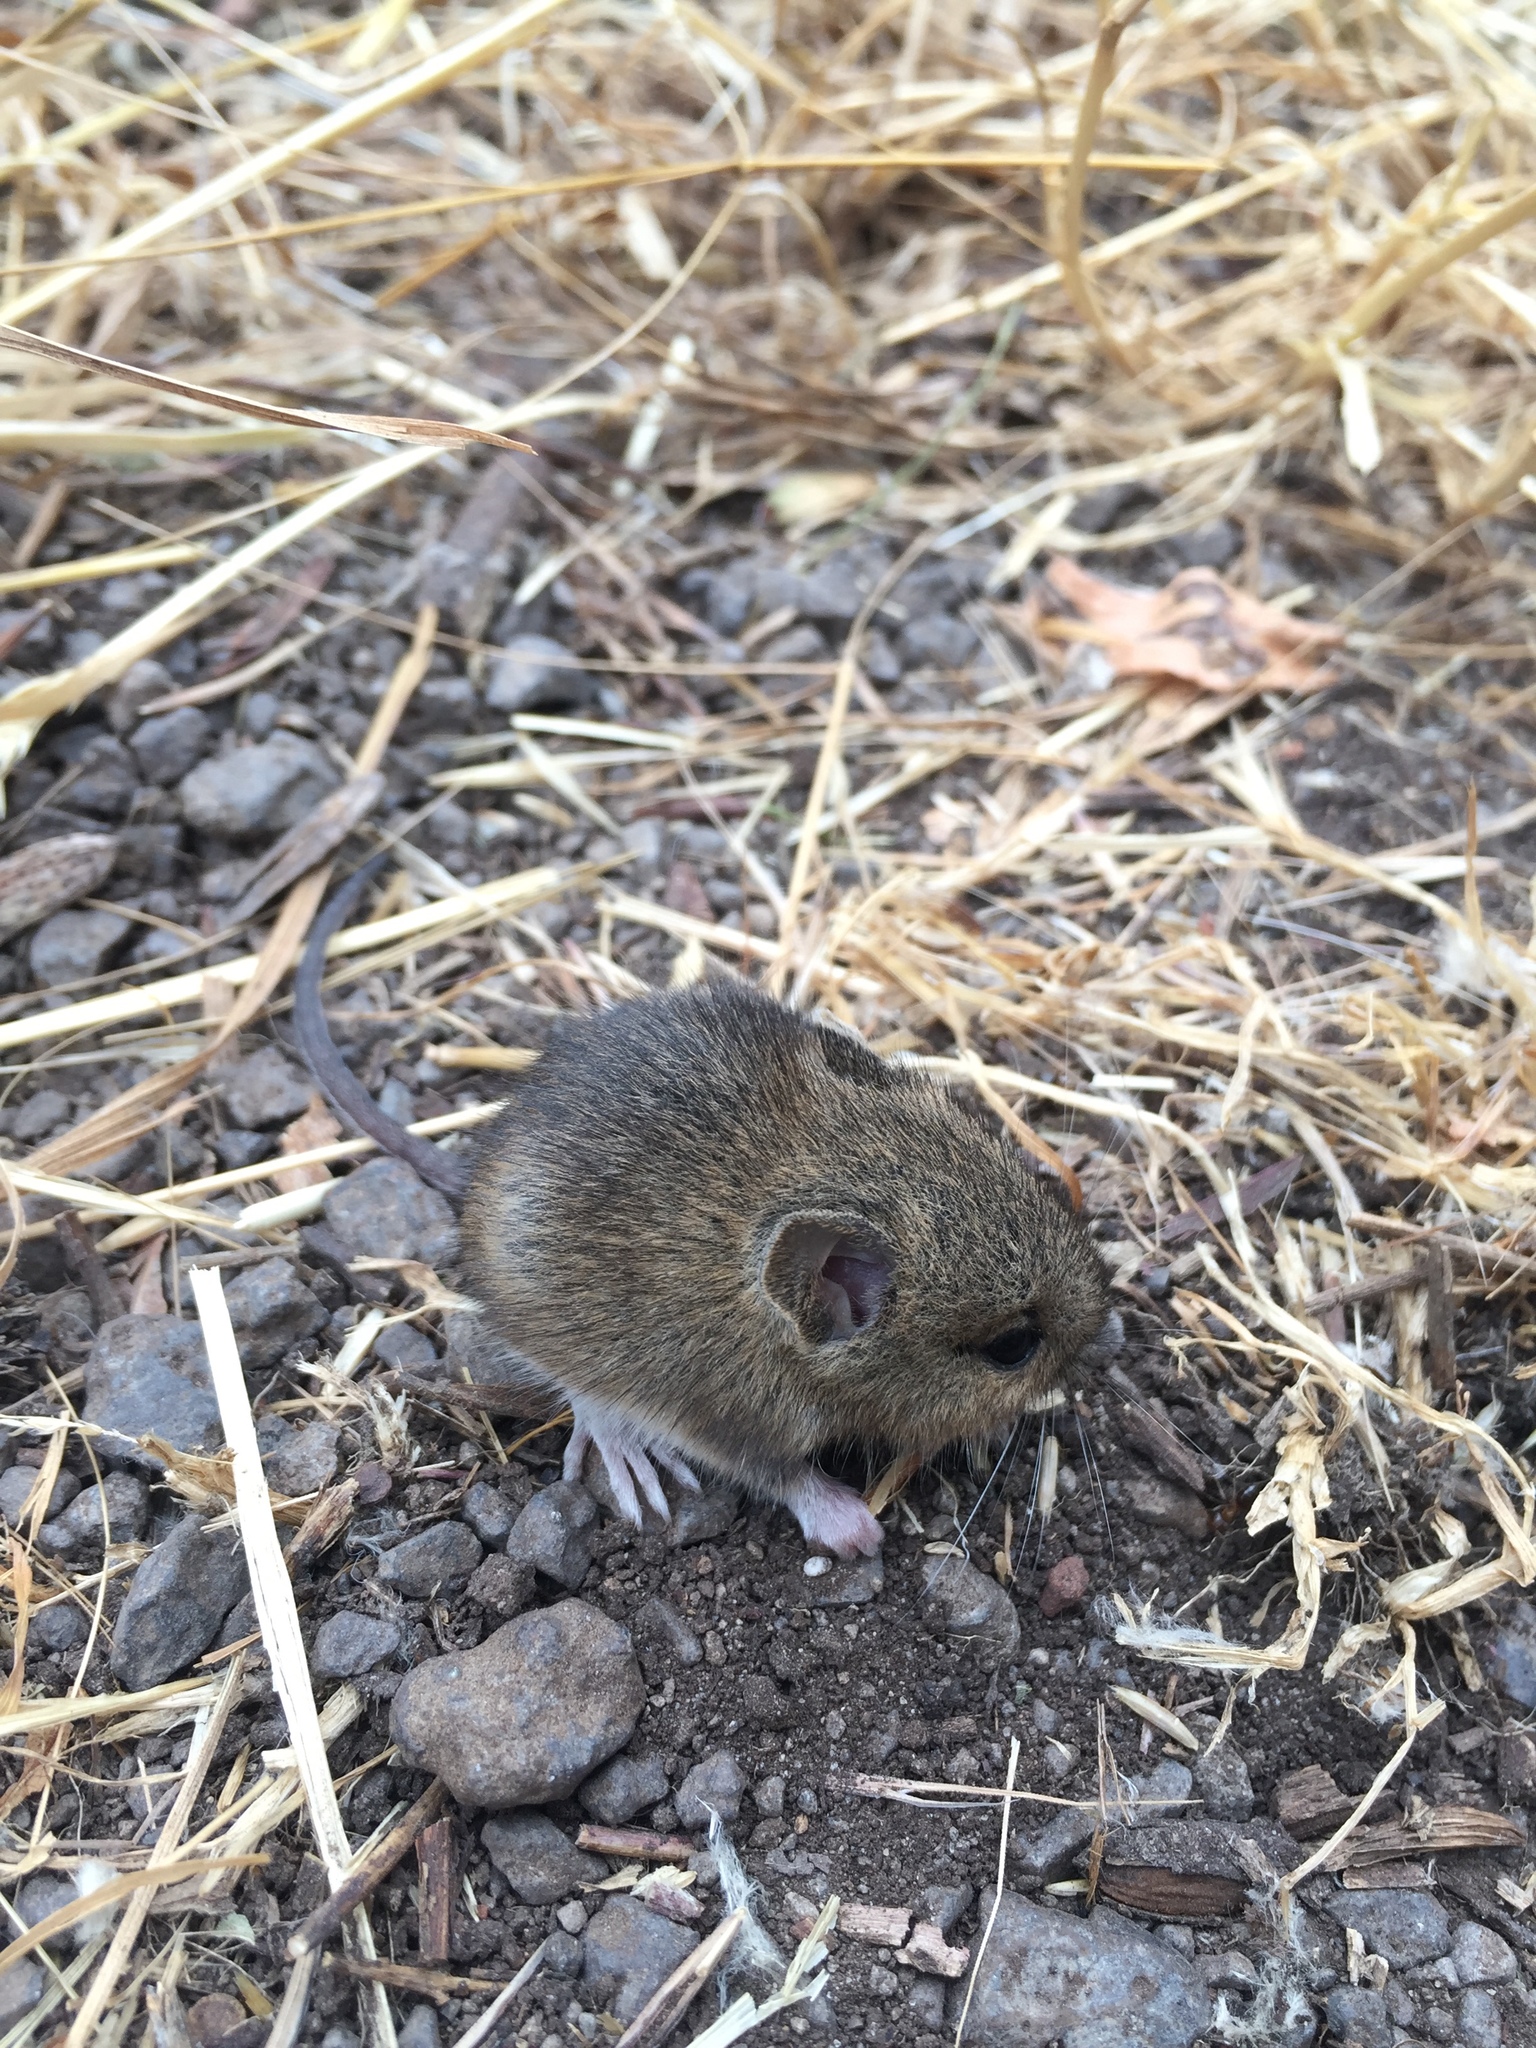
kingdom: Animalia
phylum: Chordata
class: Mammalia
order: Rodentia
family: Muridae
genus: Apodemus
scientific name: Apodemus sylvaticus
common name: Wood mouse
